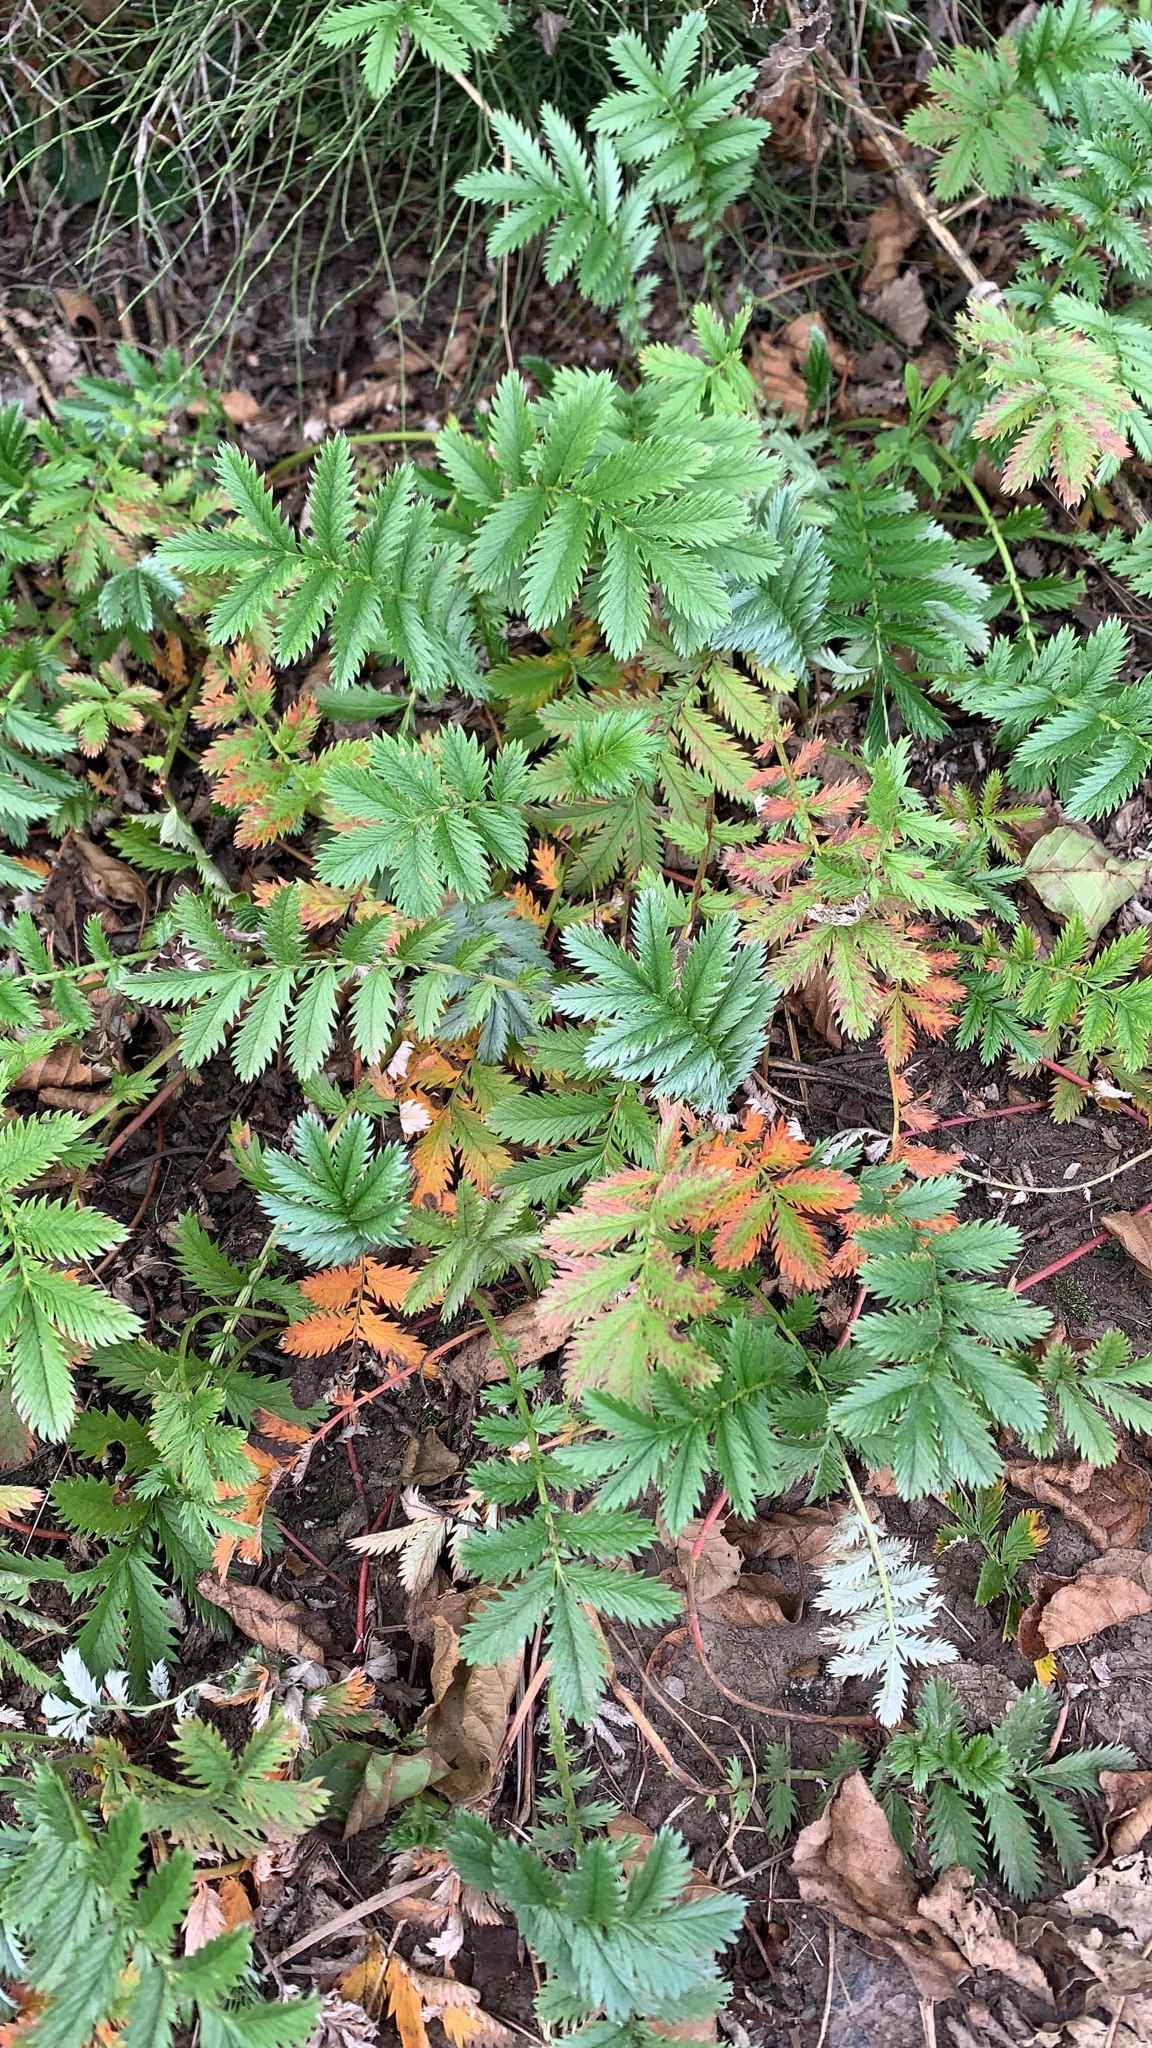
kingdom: Plantae
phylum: Tracheophyta
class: Magnoliopsida
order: Rosales
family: Rosaceae
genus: Argentina
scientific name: Argentina anserina
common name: Common silverweed
